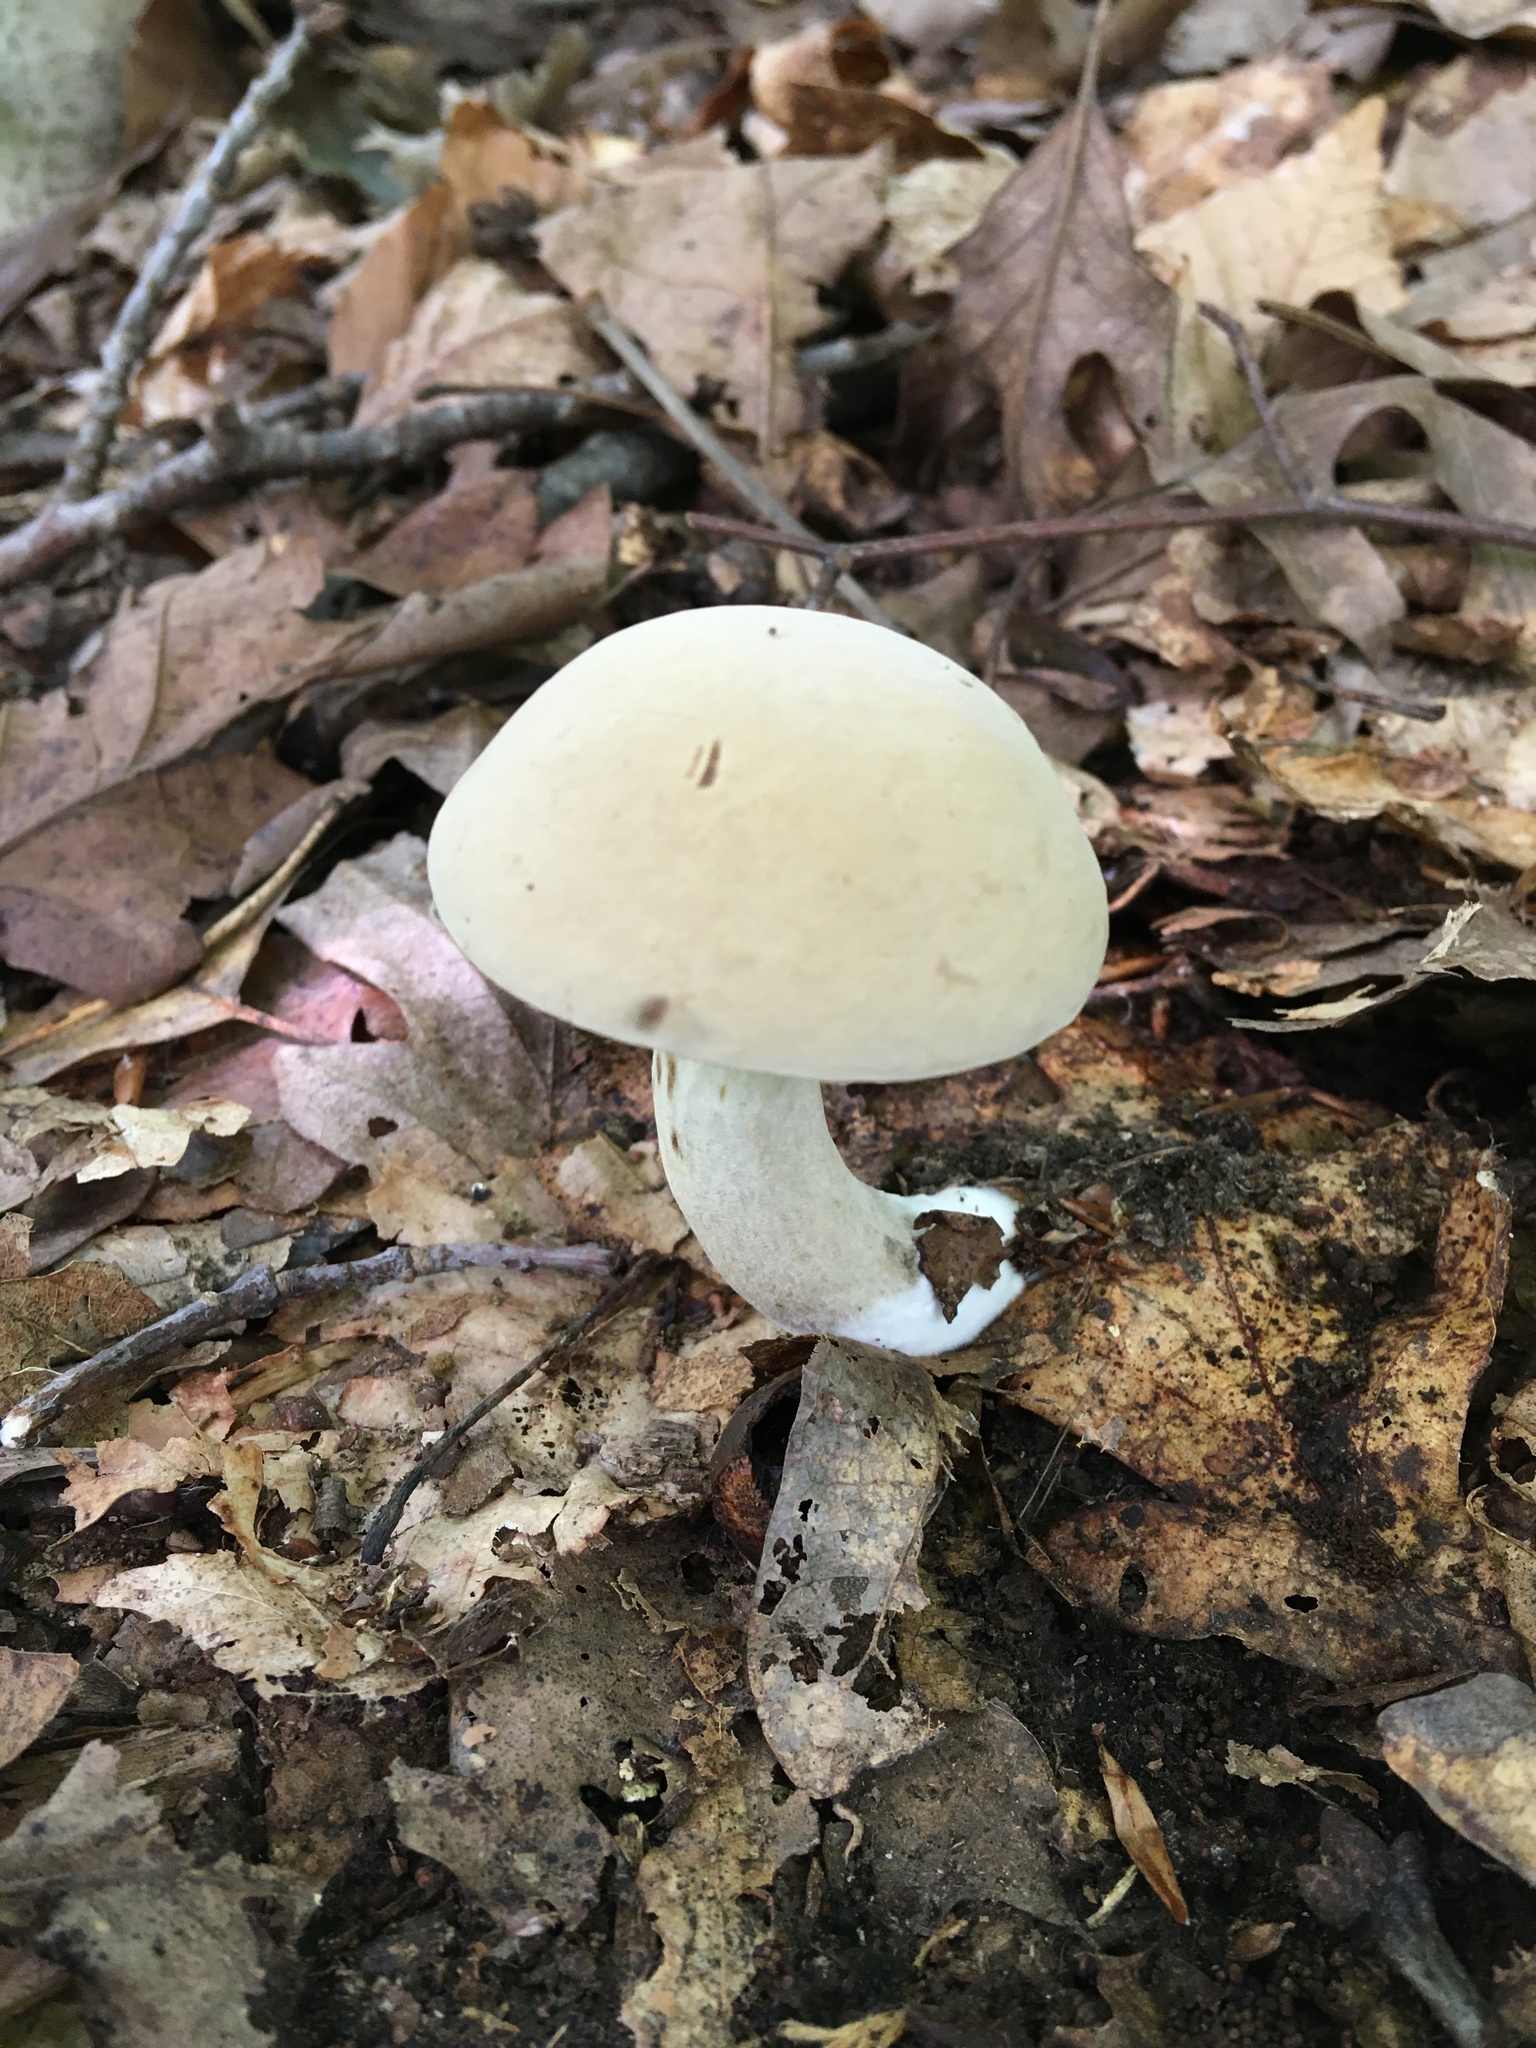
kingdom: Fungi
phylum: Basidiomycota
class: Agaricomycetes
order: Boletales
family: Boletaceae
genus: Imleria
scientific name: Imleria pallida
